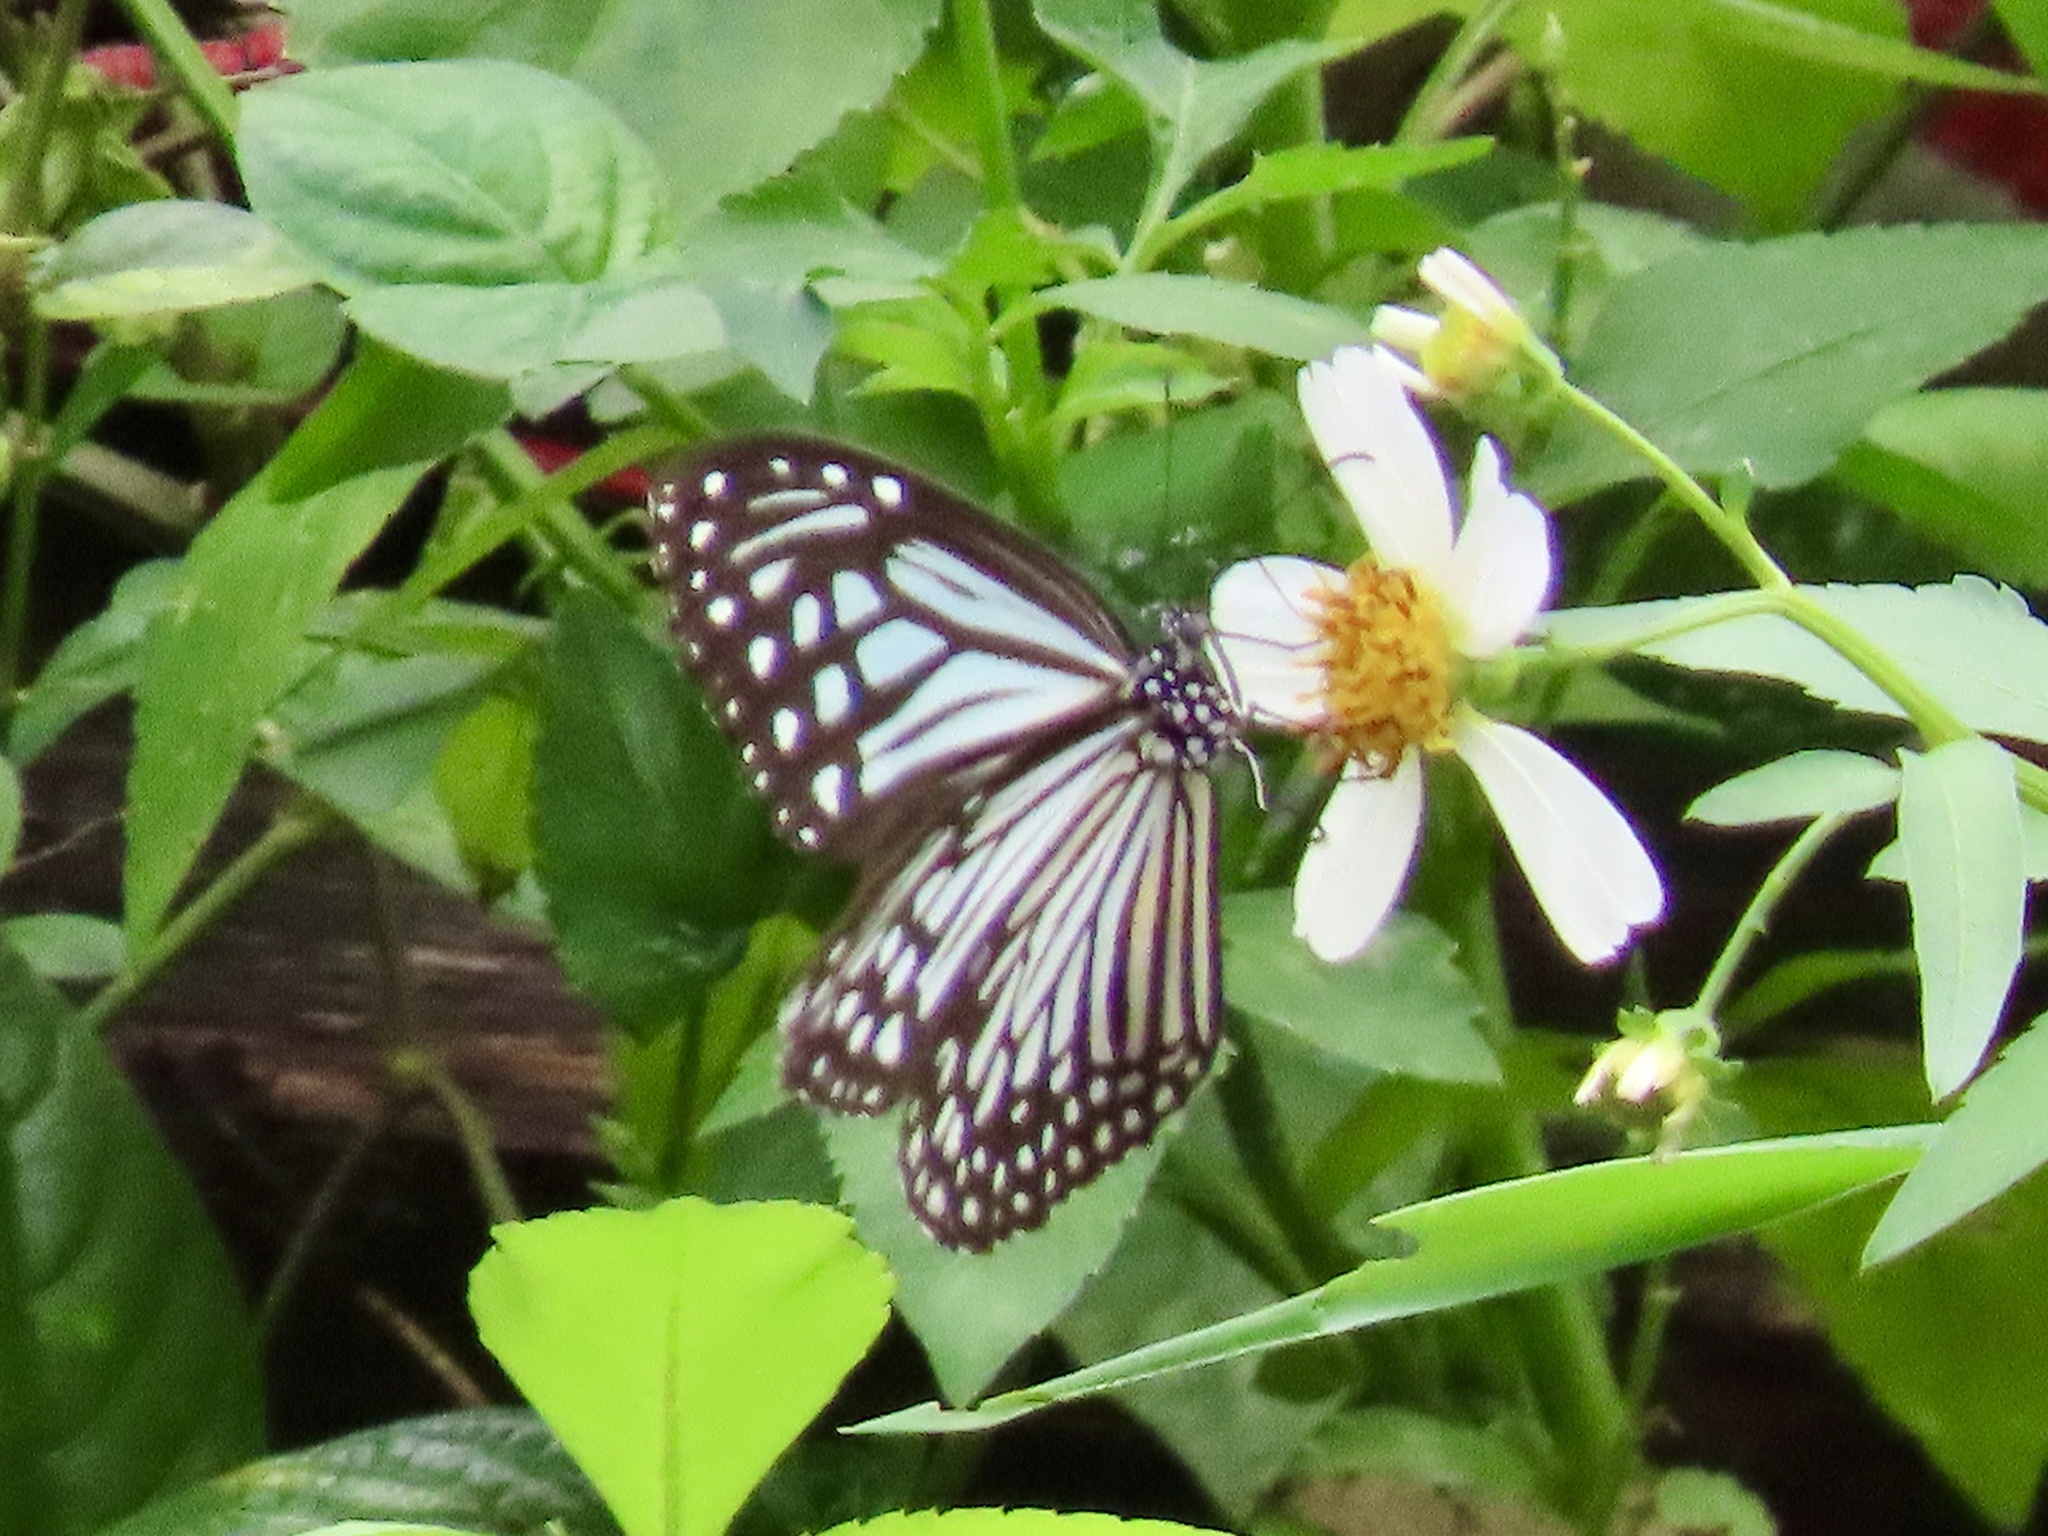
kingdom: Animalia
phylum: Arthropoda
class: Insecta
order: Lepidoptera
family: Nymphalidae
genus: Parantica
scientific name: Parantica aglea
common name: Glassy tiger
